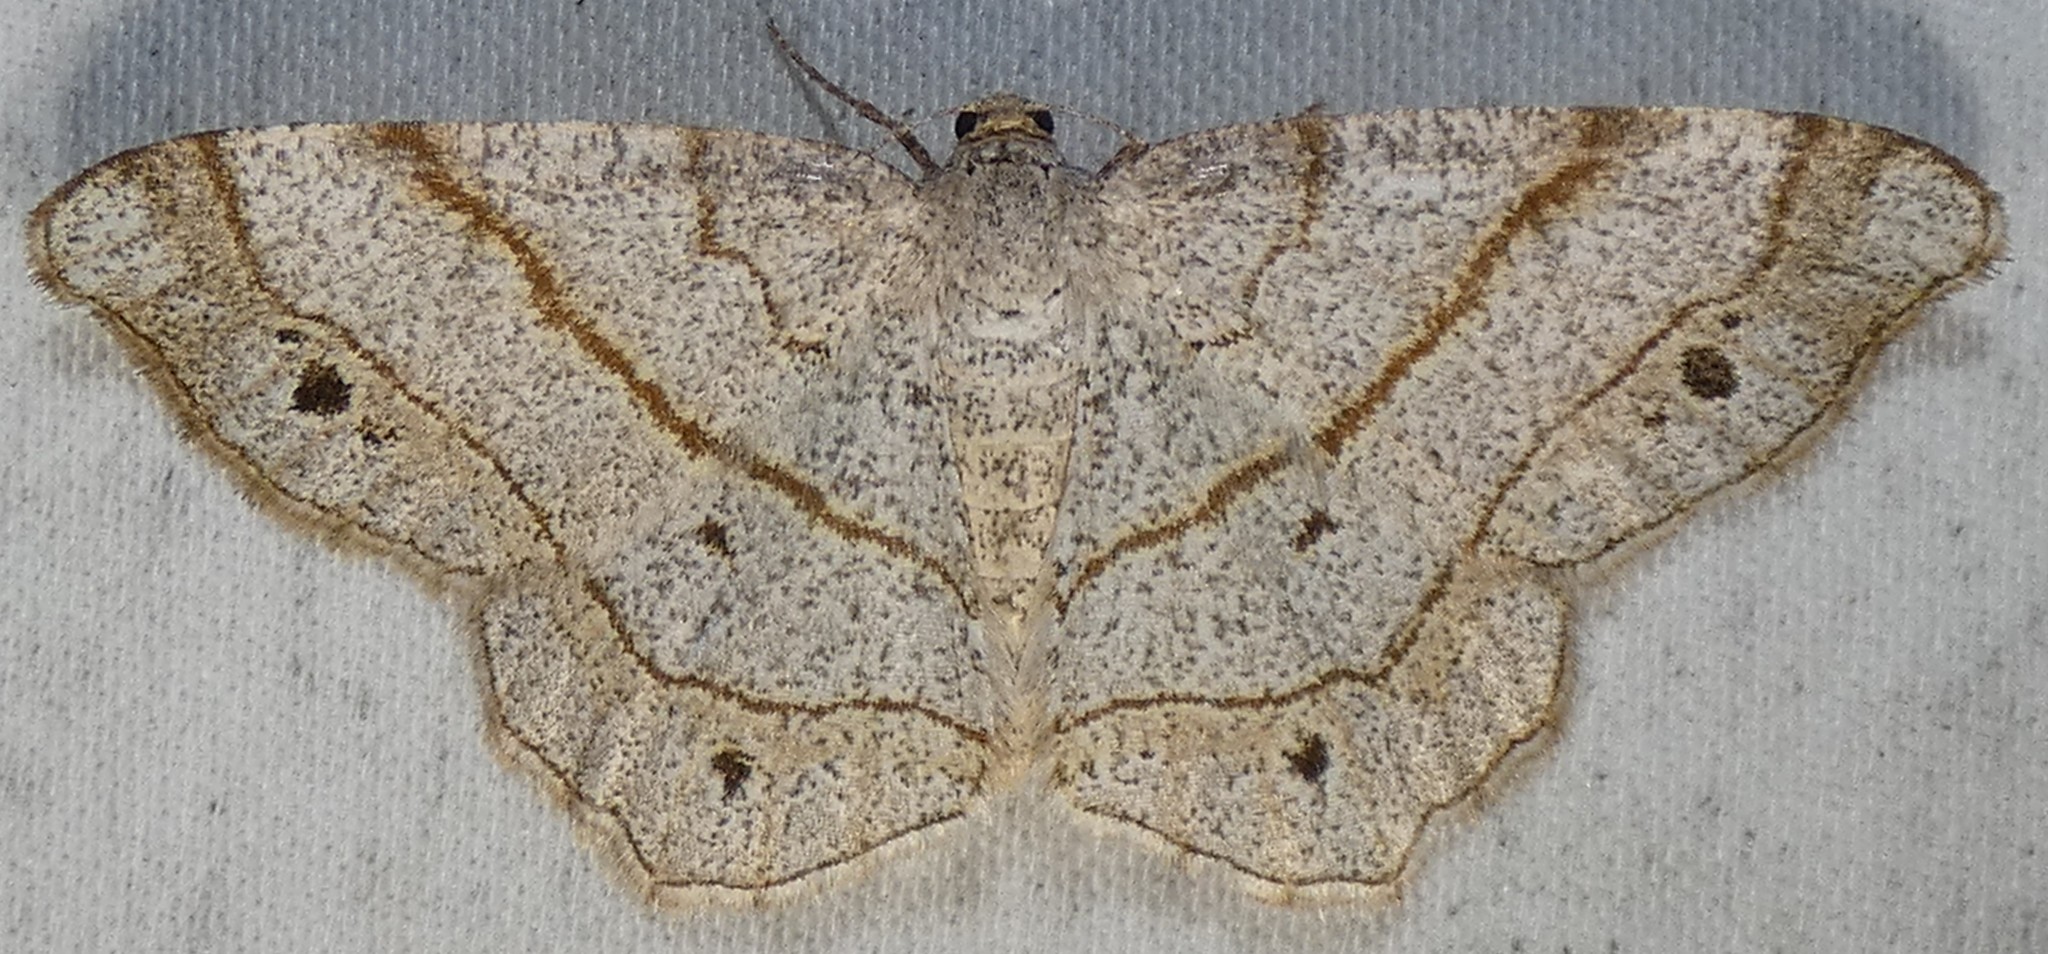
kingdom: Animalia
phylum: Arthropoda
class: Insecta
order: Lepidoptera
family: Geometridae
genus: Trigrammia
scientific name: Trigrammia quadrinotaria
